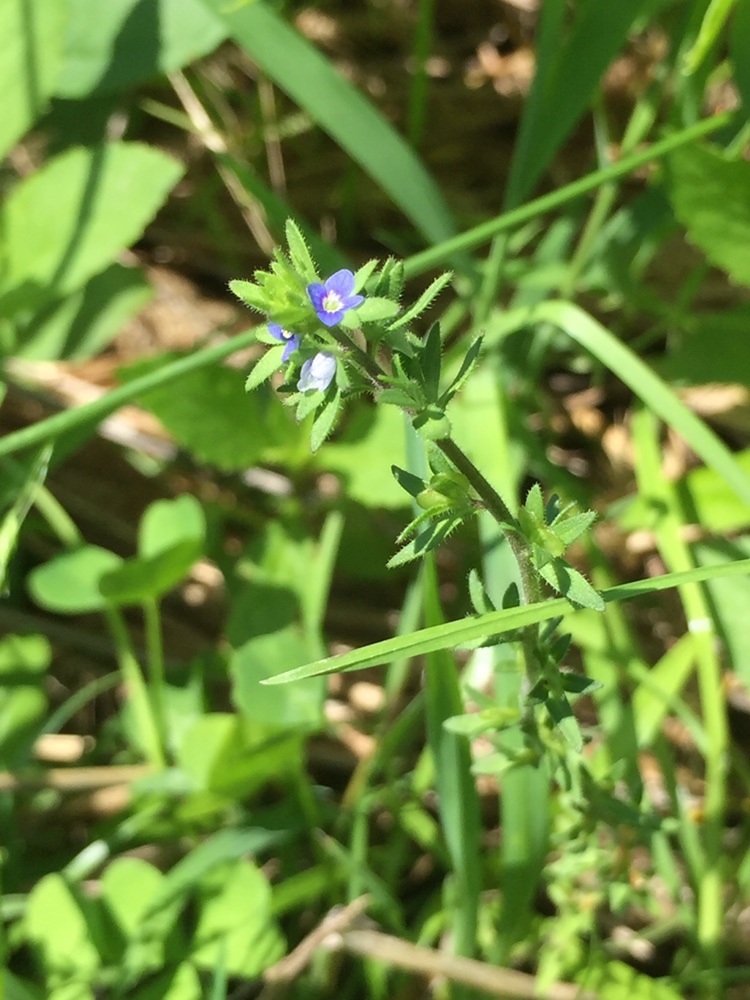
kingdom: Plantae
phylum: Tracheophyta
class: Magnoliopsida
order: Lamiales
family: Plantaginaceae
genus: Veronica
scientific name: Veronica arvensis
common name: Corn speedwell
